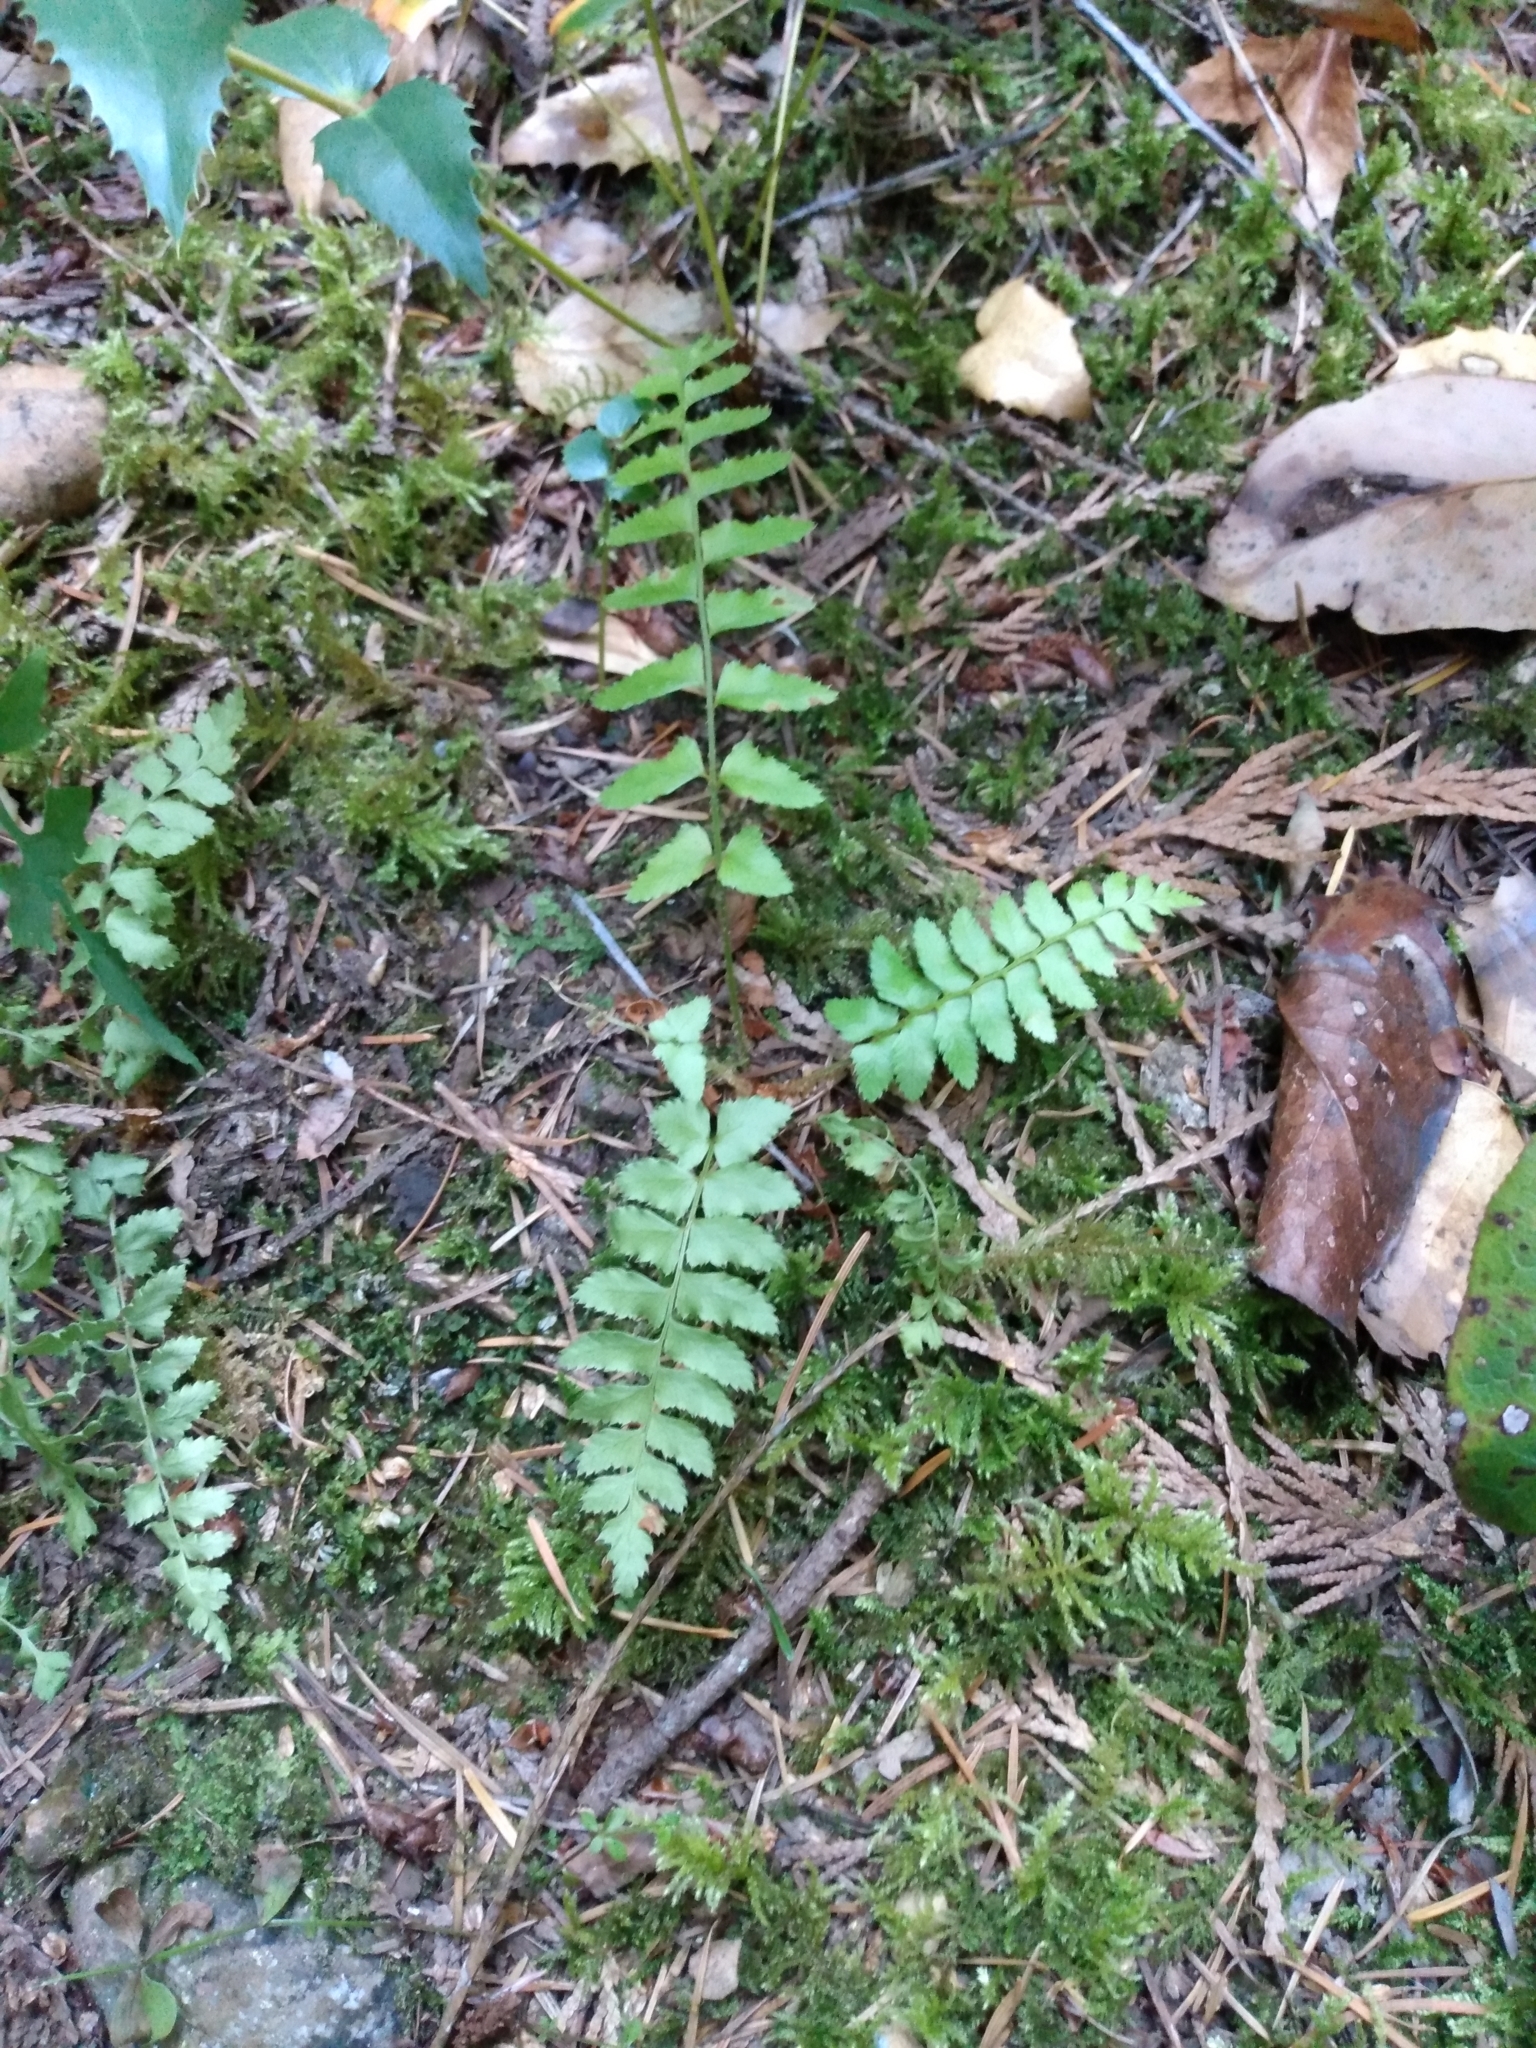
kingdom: Plantae
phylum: Tracheophyta
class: Polypodiopsida
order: Polypodiales
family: Dryopteridaceae
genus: Polystichum
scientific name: Polystichum munitum
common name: Western sword-fern
